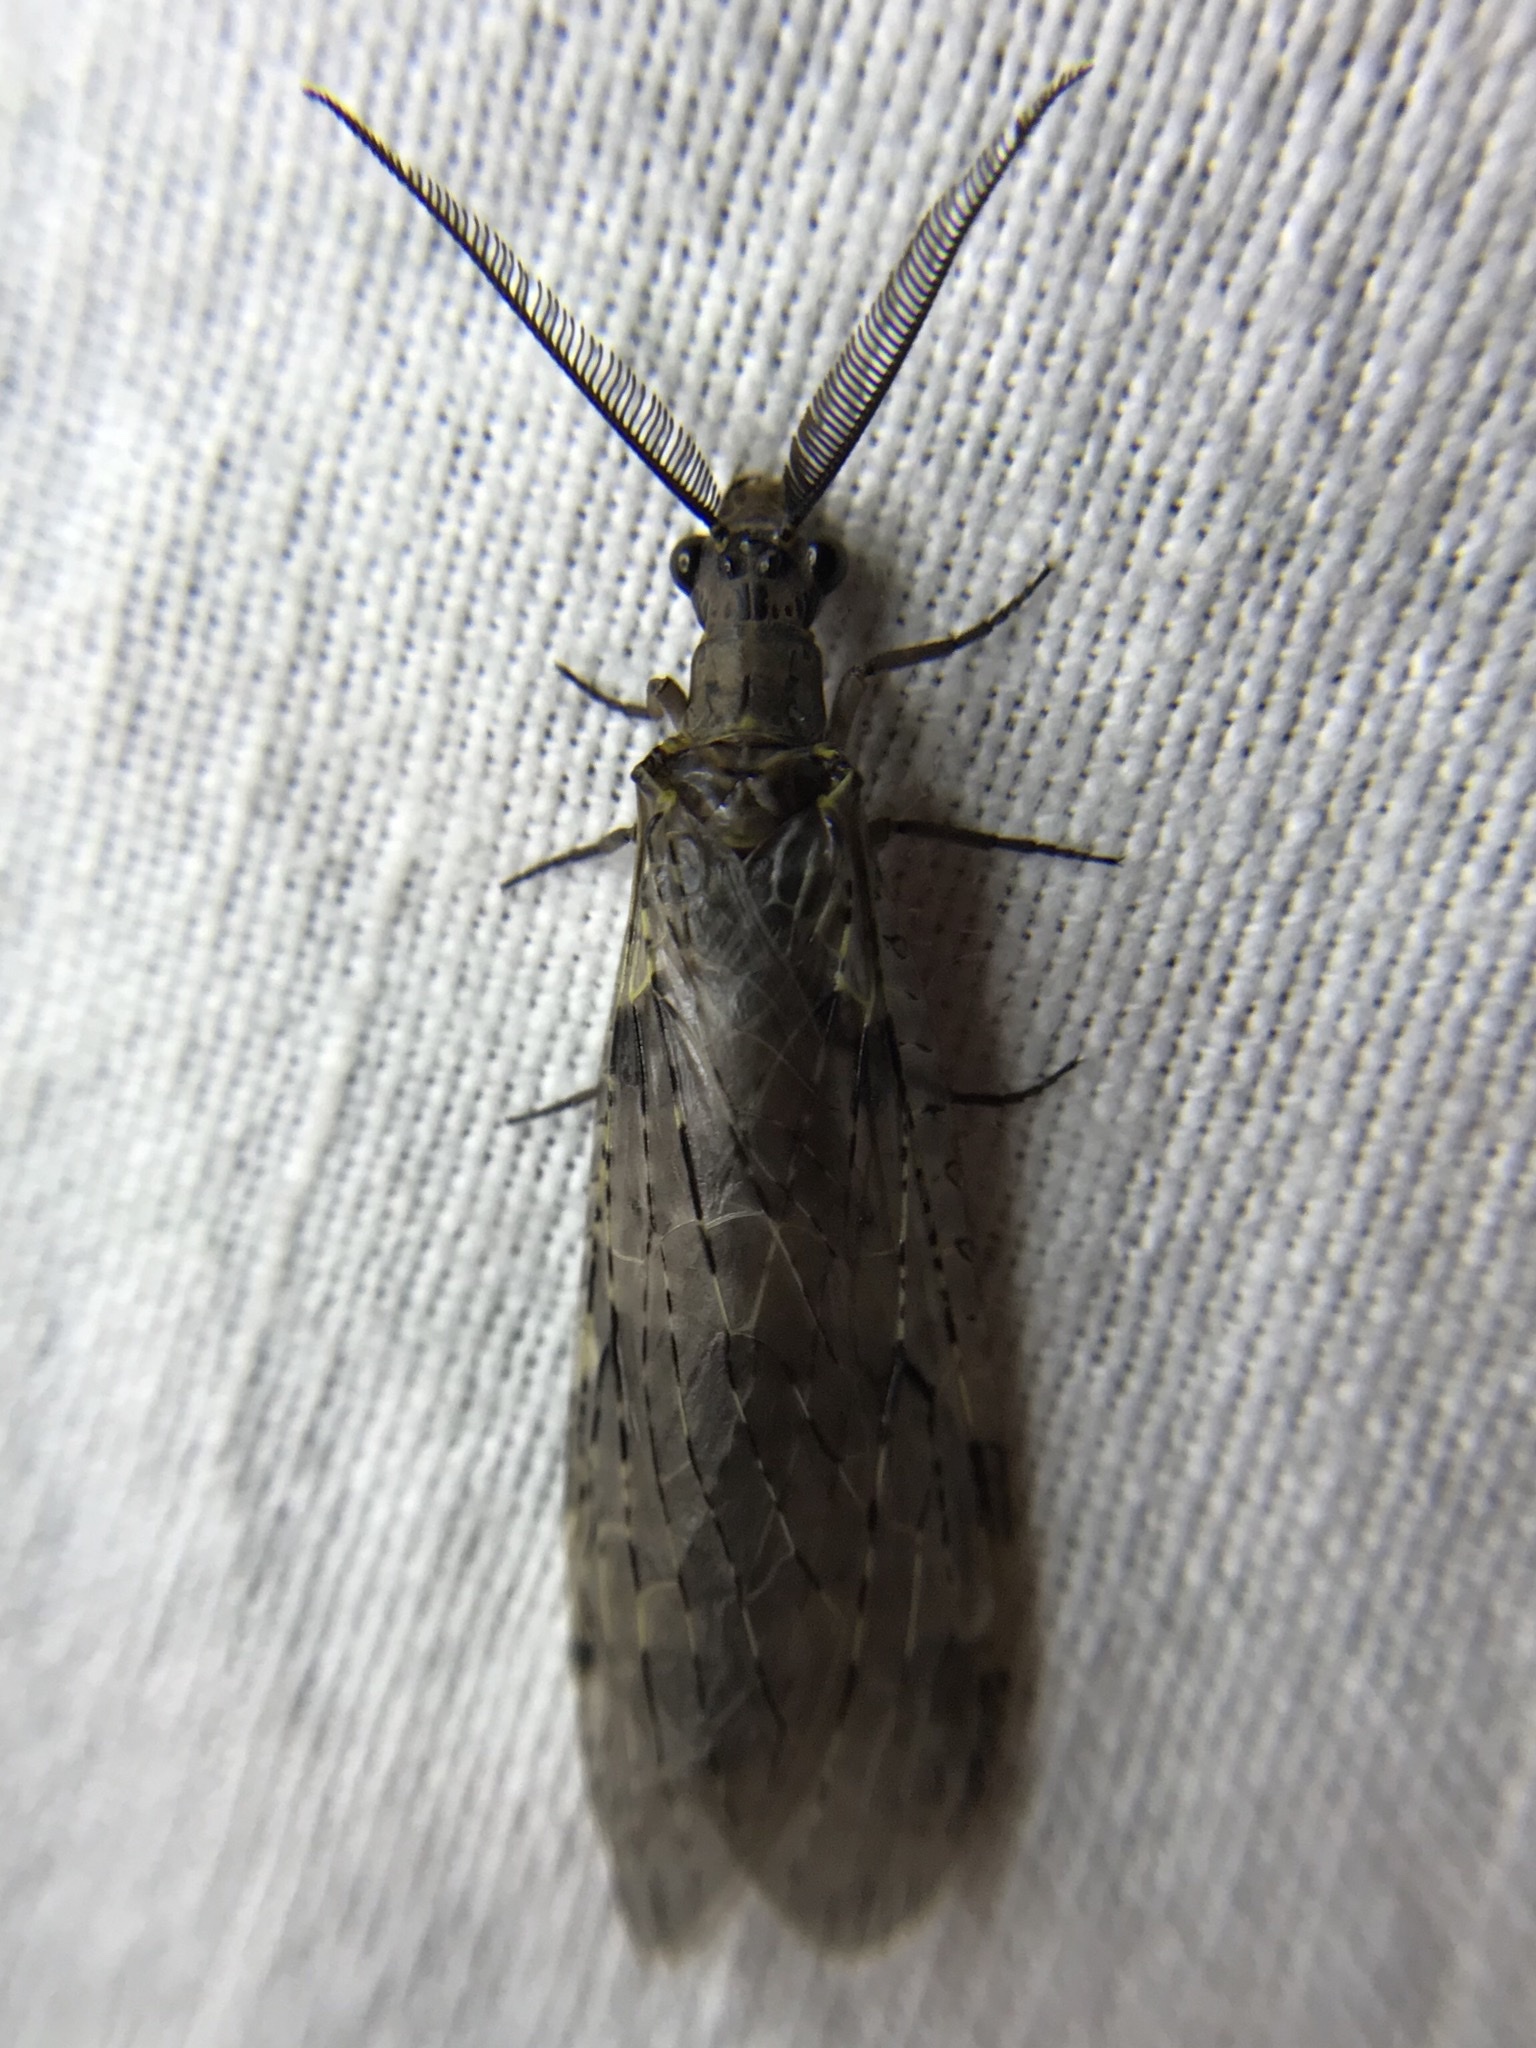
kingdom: Animalia
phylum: Arthropoda
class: Insecta
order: Megaloptera
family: Corydalidae
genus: Chauliodes
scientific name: Chauliodes rastricornis
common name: Spring fishfly
